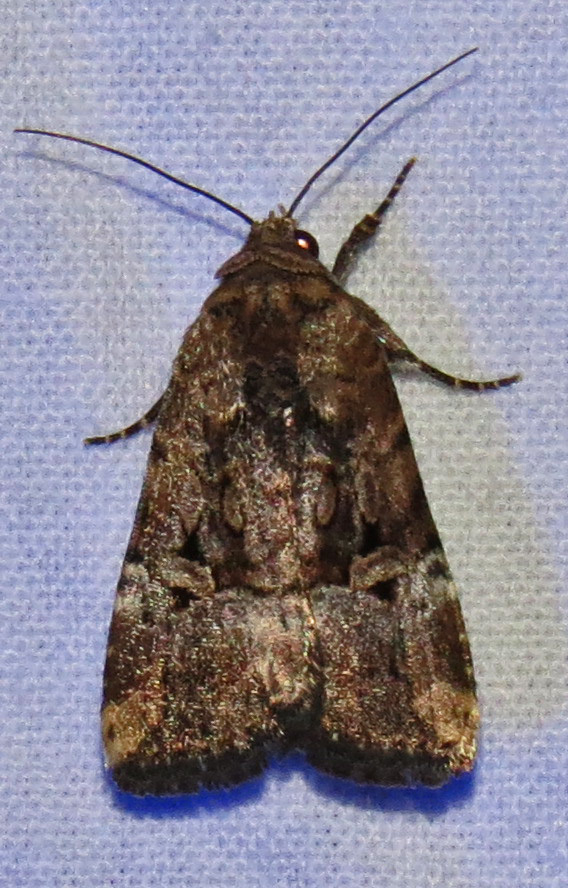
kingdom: Animalia
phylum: Arthropoda
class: Insecta
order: Lepidoptera
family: Noctuidae
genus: Elaphria
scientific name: Elaphria chalcedonia
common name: Chalcedony midget
